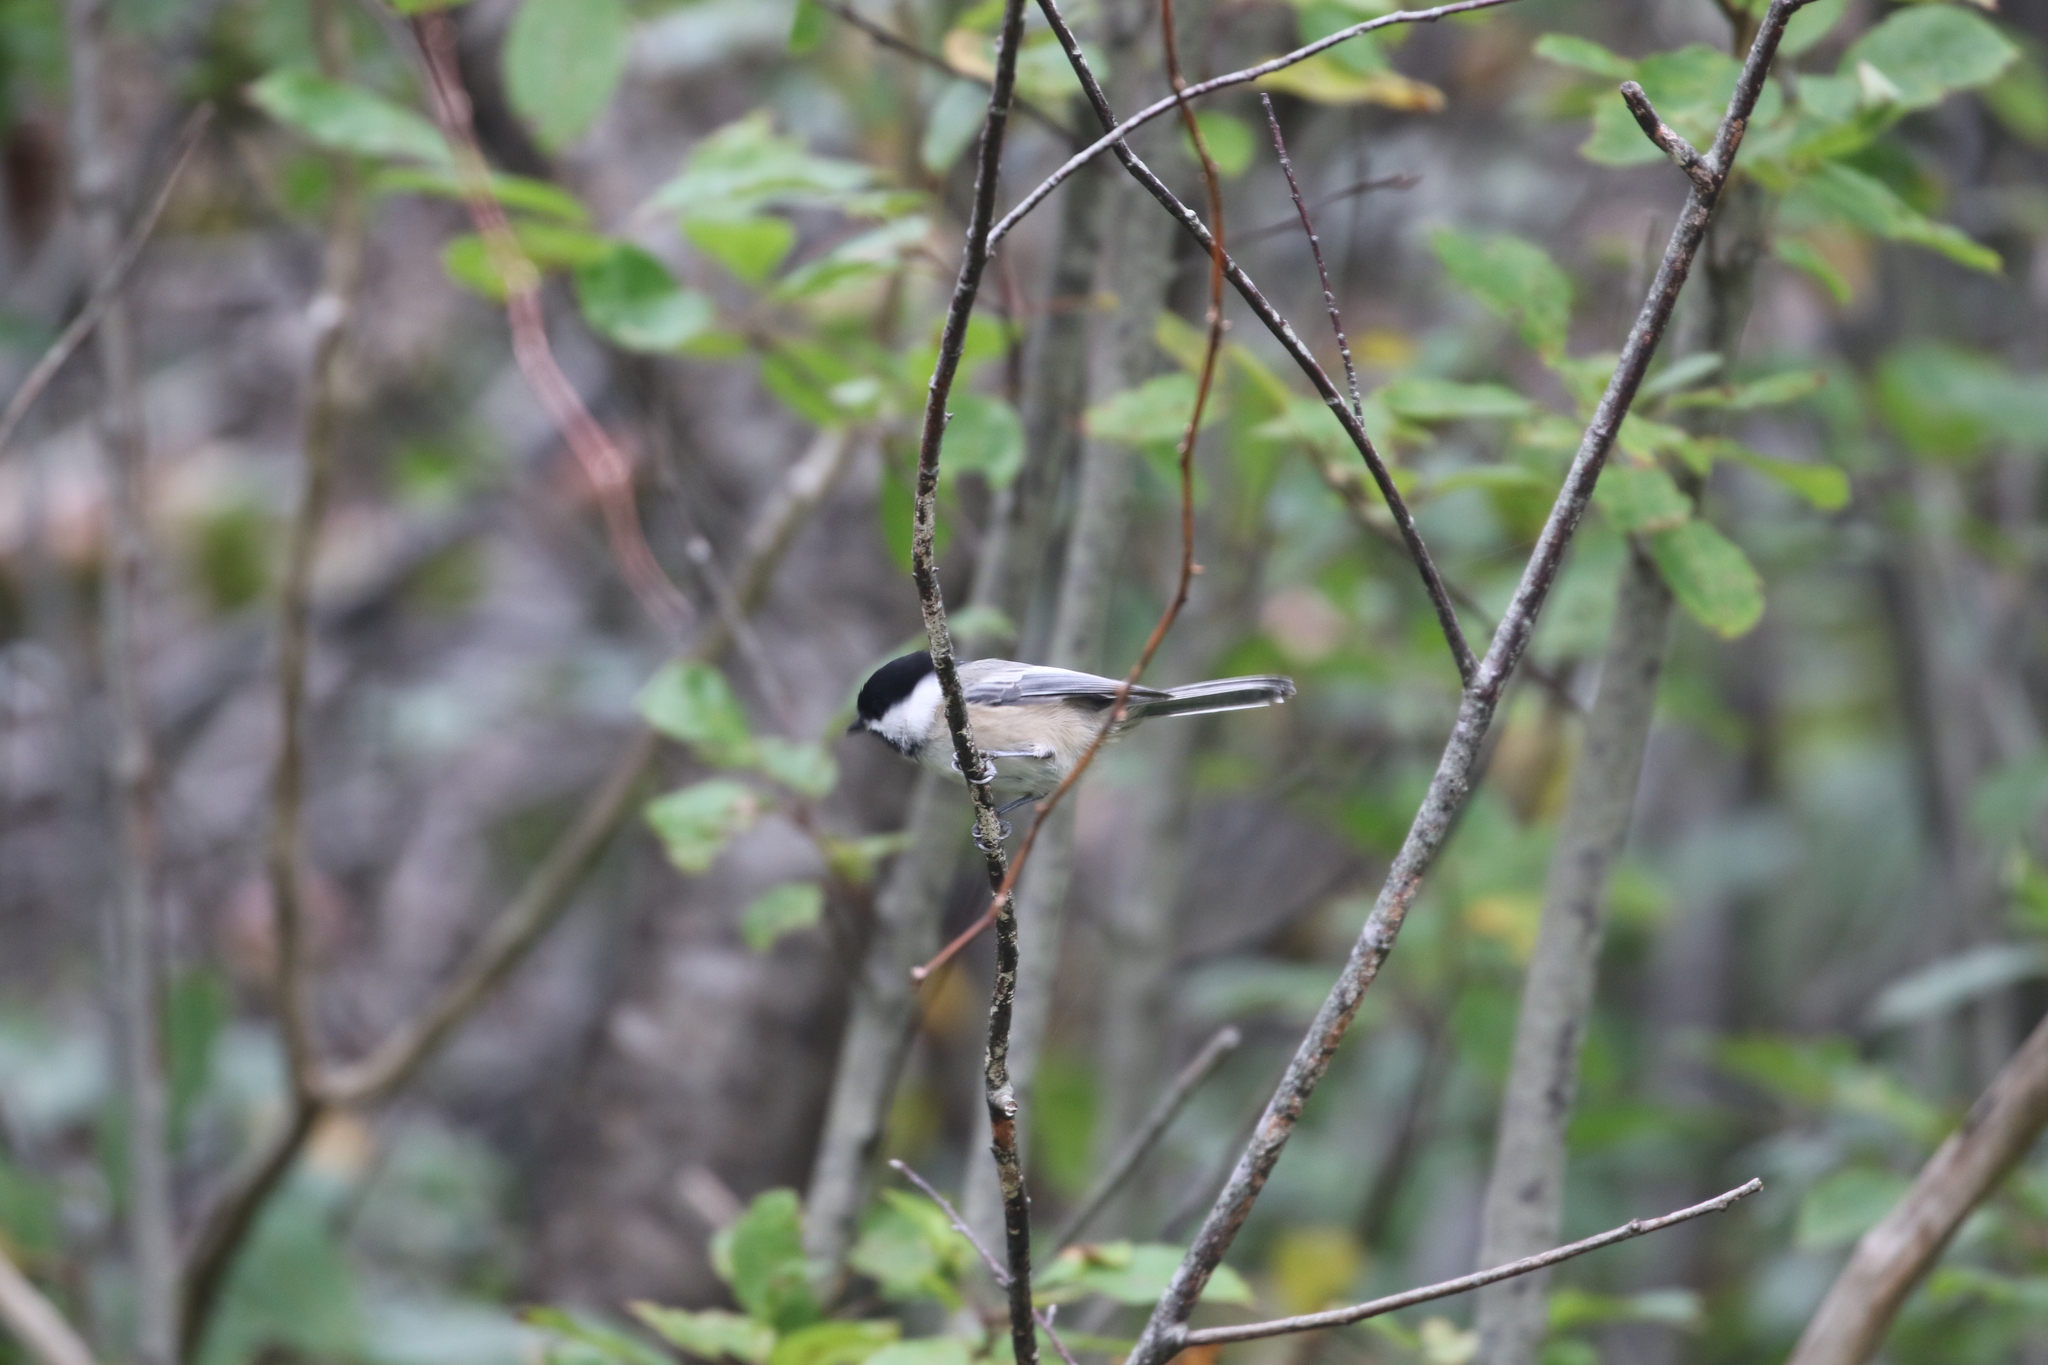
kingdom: Animalia
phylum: Chordata
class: Aves
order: Passeriformes
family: Paridae
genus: Poecile
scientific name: Poecile atricapillus
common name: Black-capped chickadee
